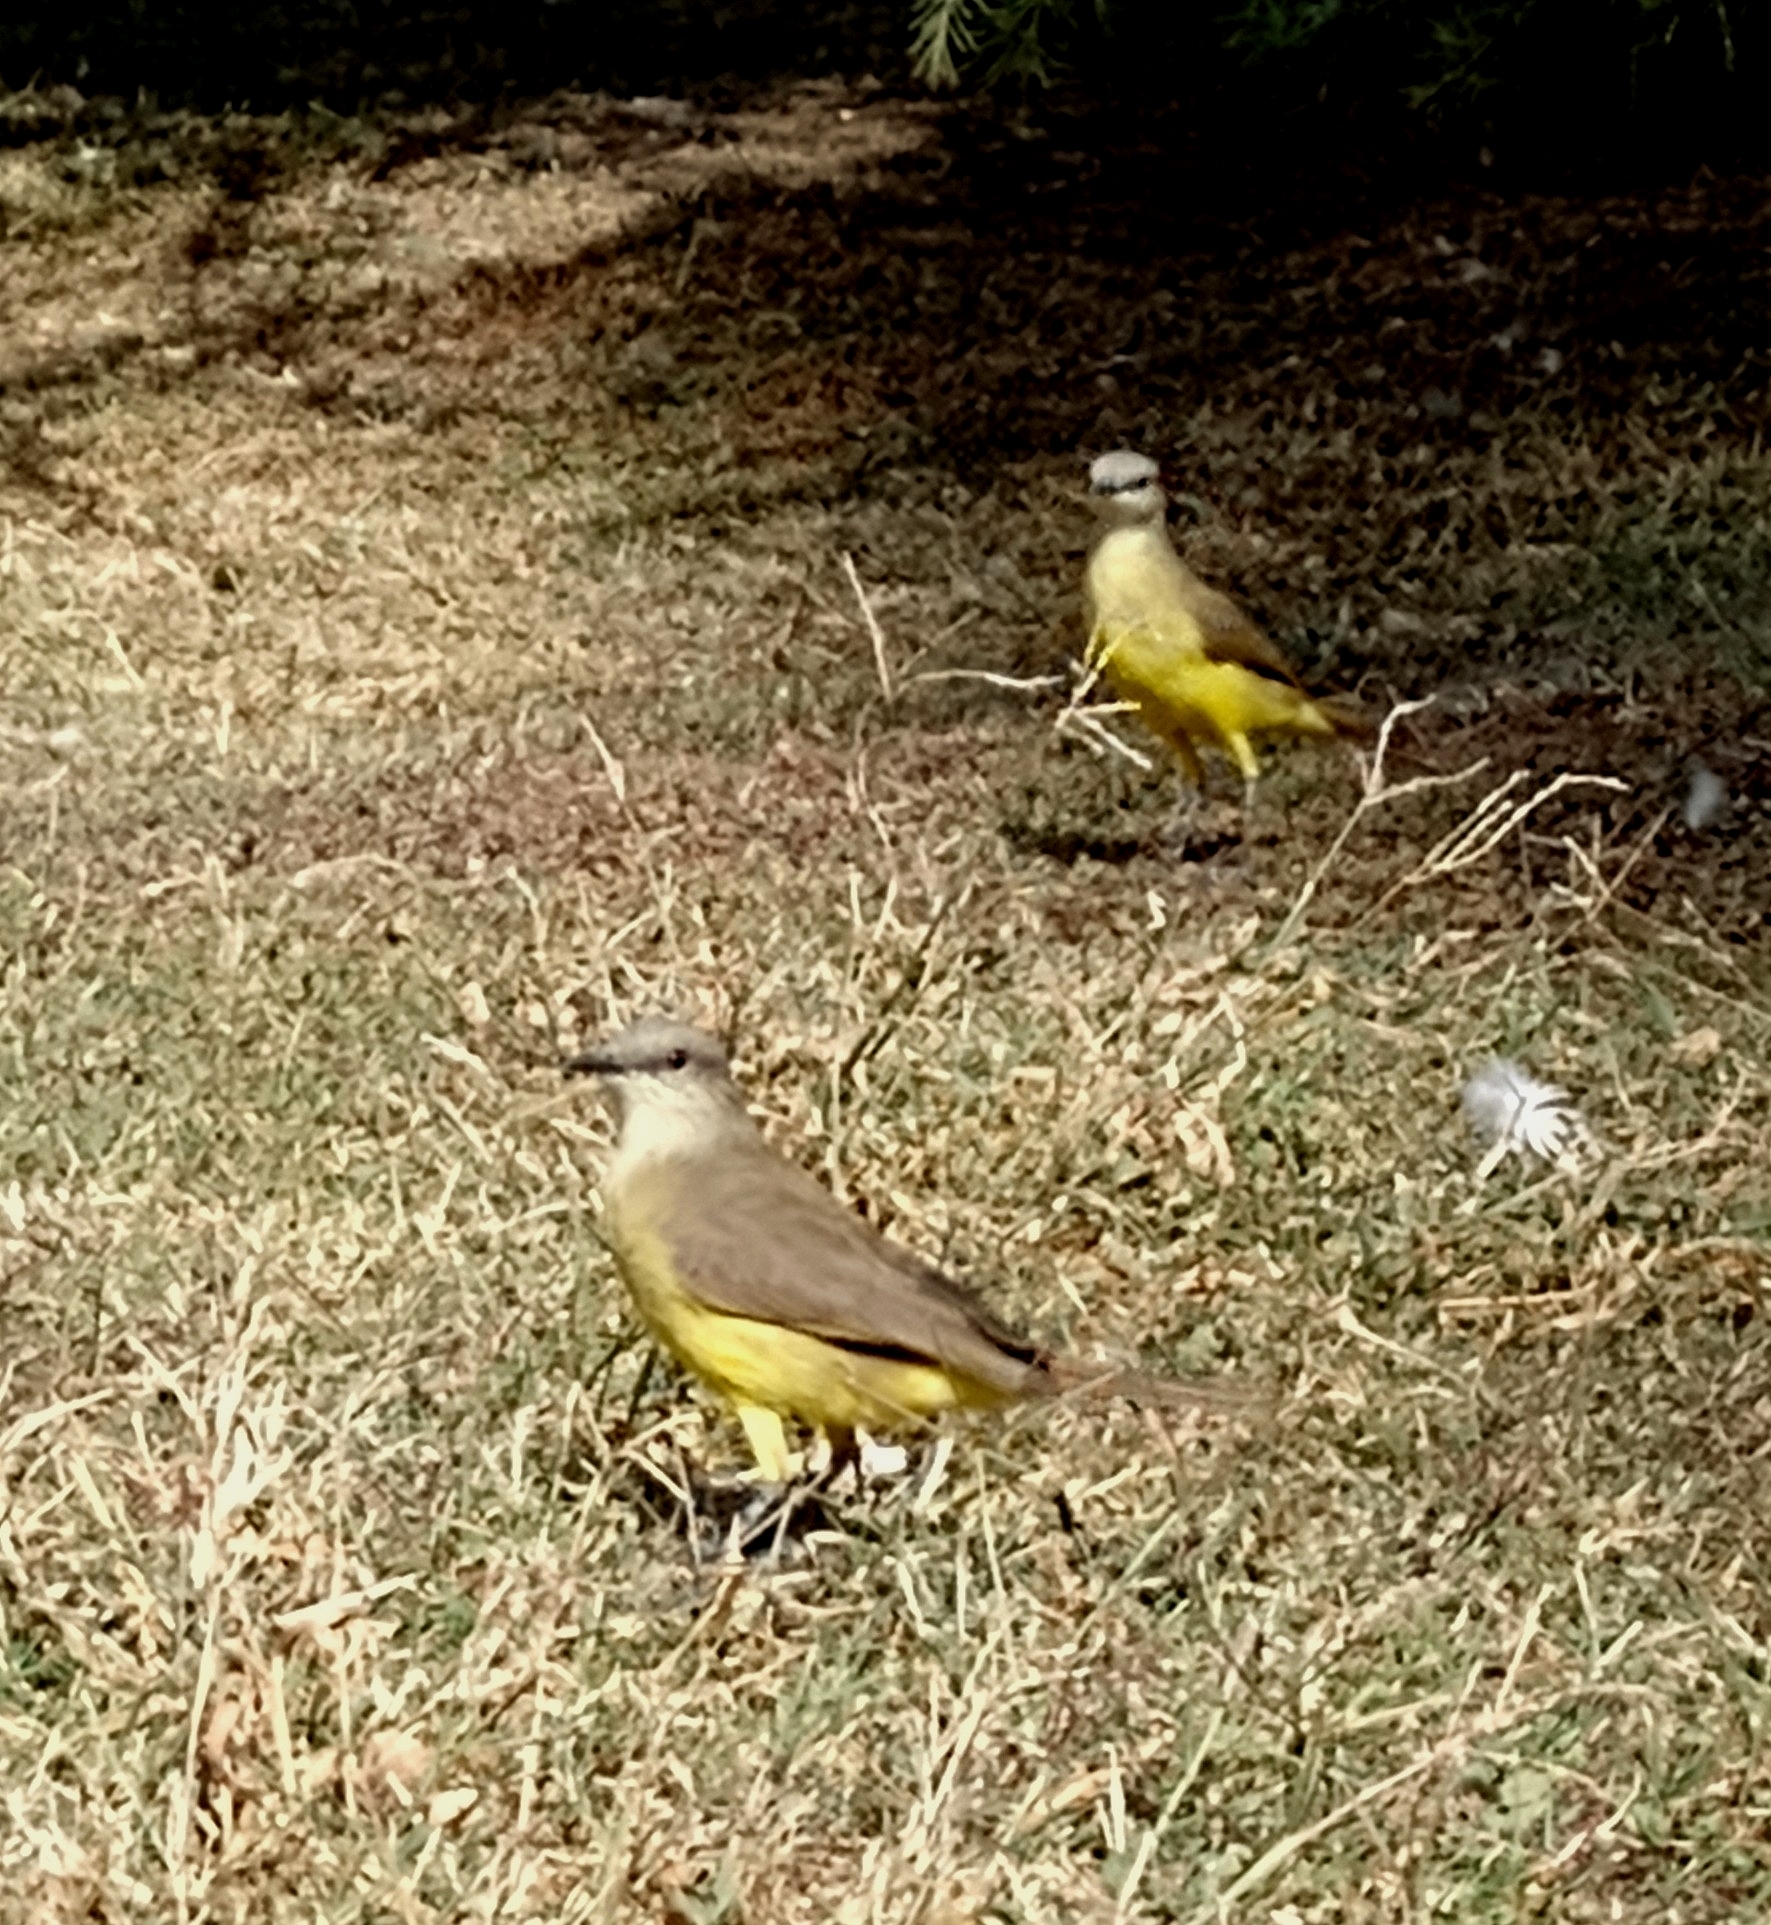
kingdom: Animalia
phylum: Chordata
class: Aves
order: Passeriformes
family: Tyrannidae
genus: Machetornis
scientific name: Machetornis rixosa
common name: Cattle tyrant
